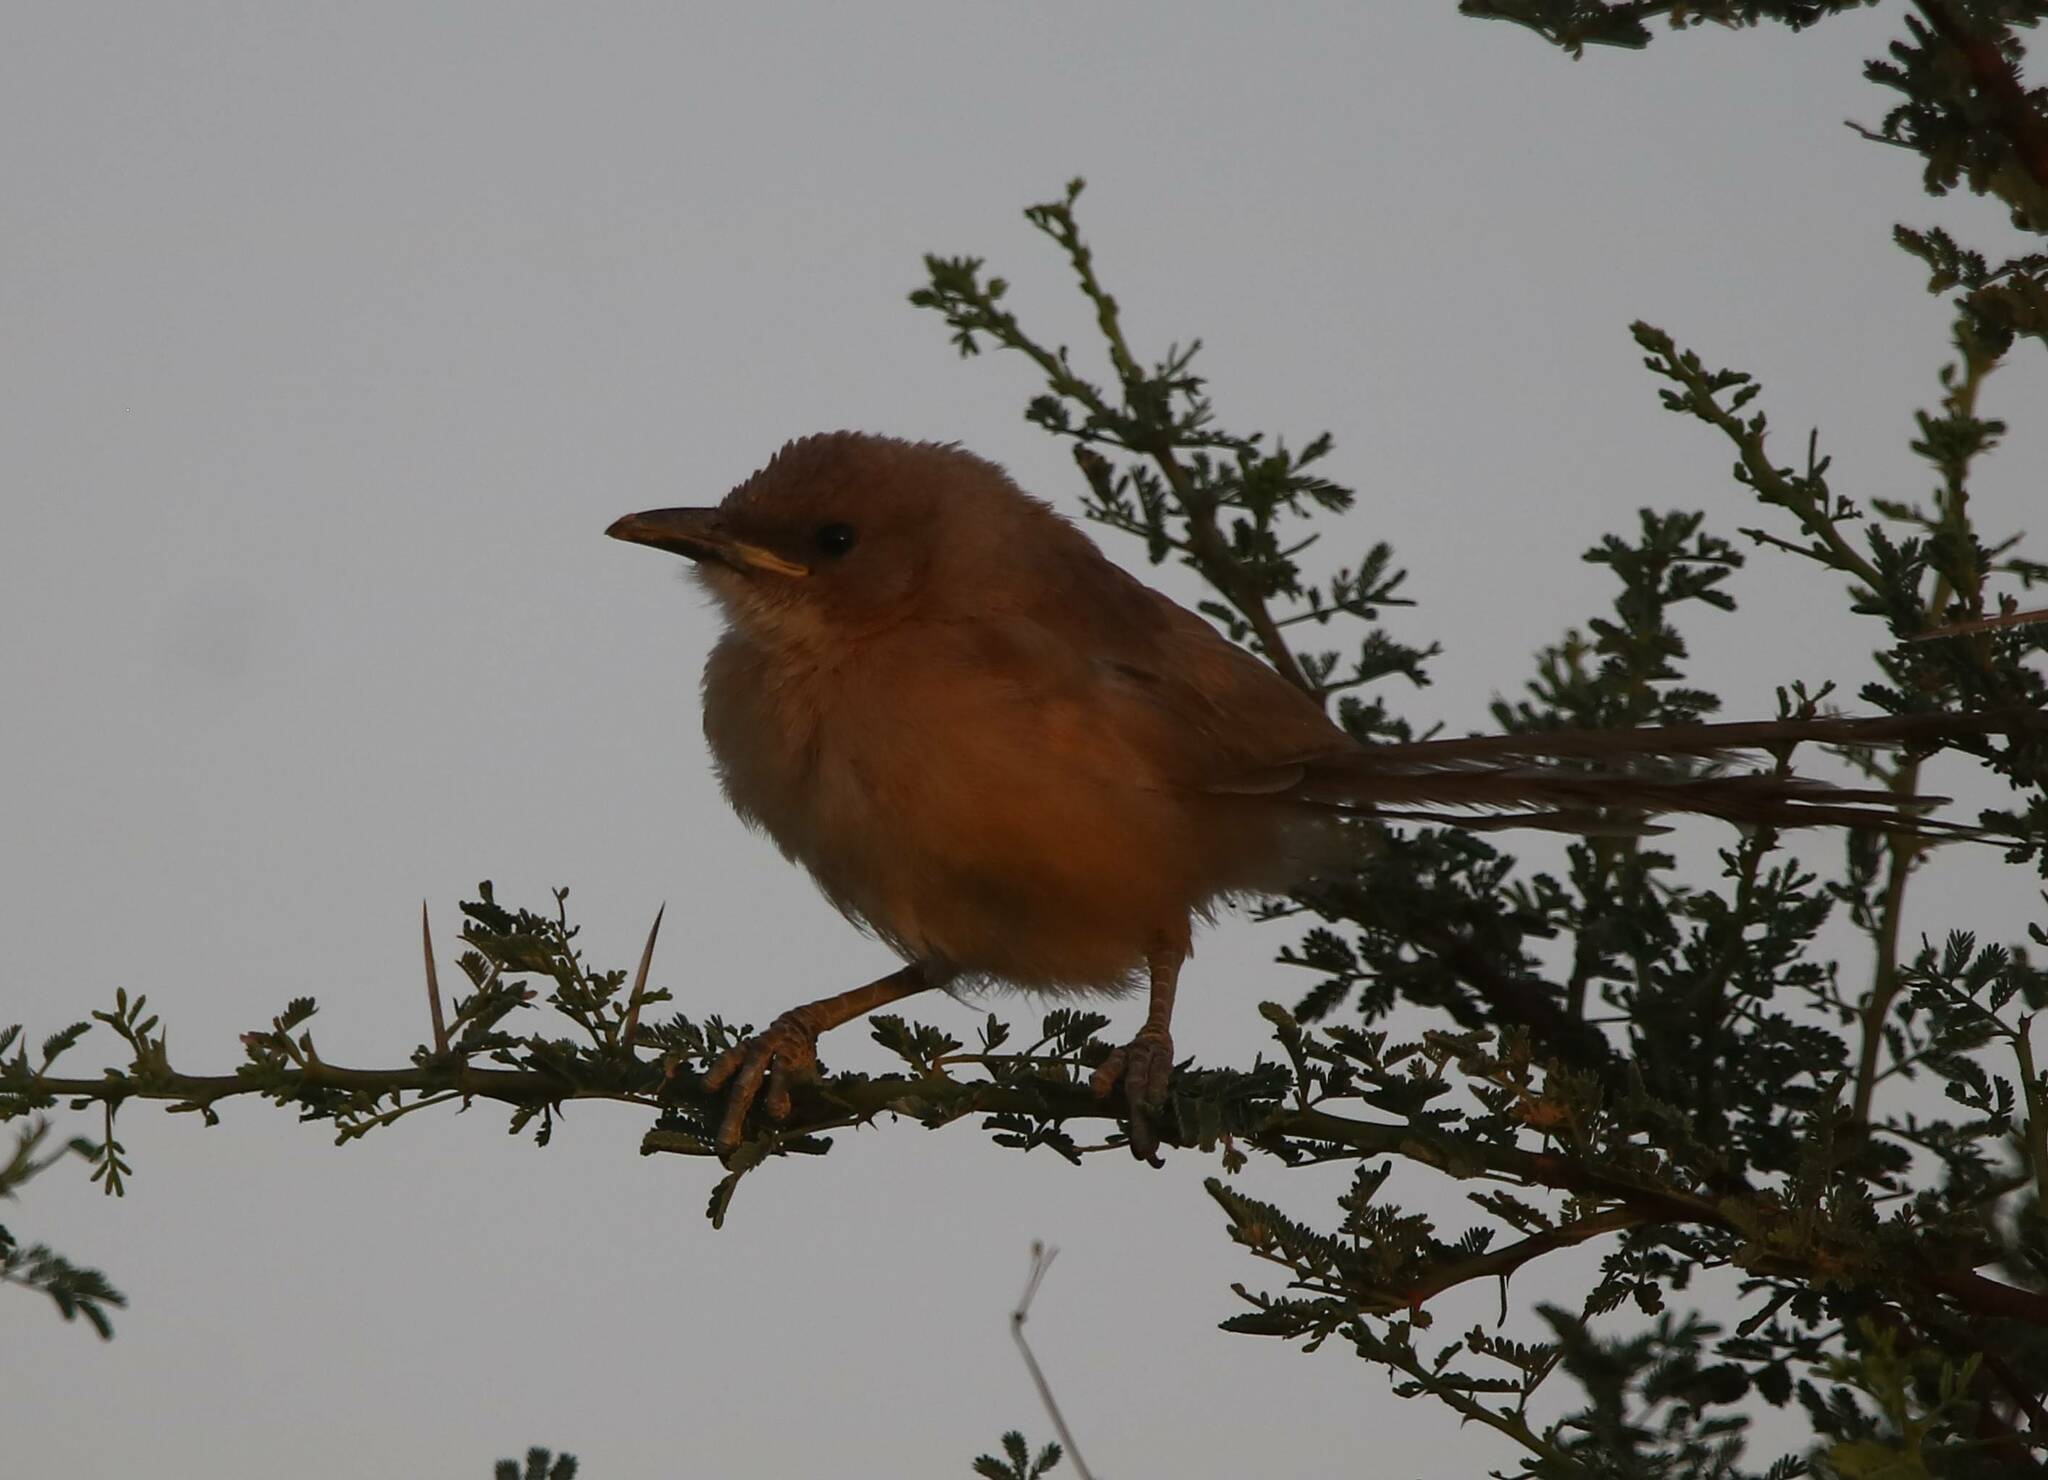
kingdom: Animalia
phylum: Chordata
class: Aves
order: Passeriformes
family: Leiothrichidae
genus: Turdoides
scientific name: Turdoides fulva
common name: Fulvous babbler
